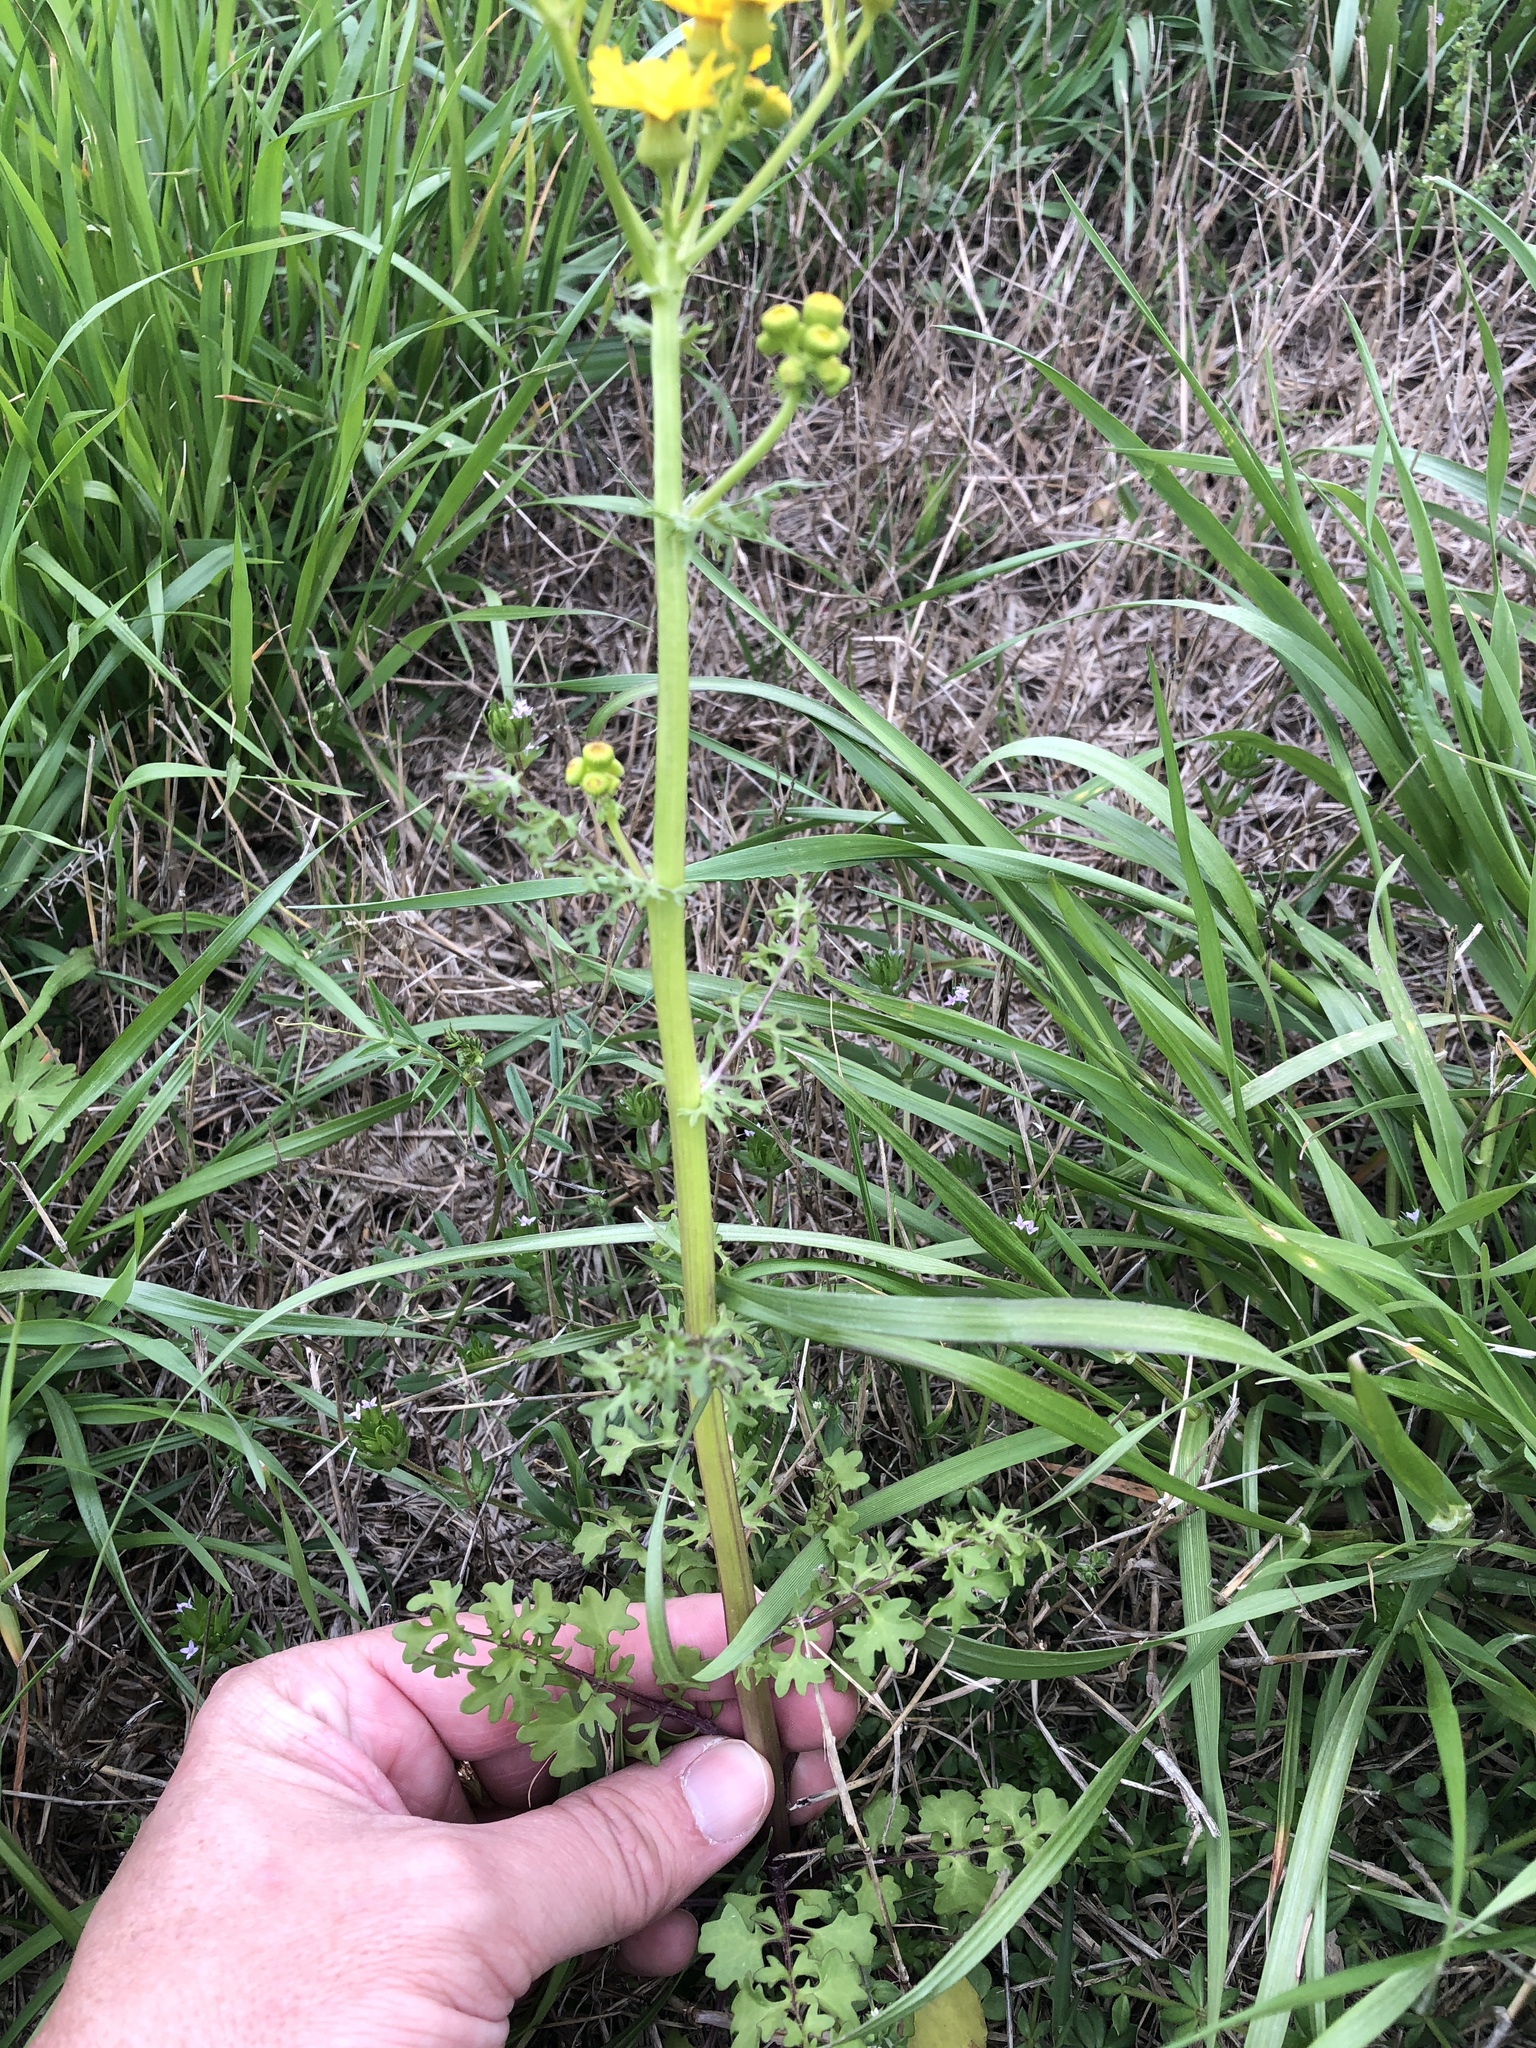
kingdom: Plantae
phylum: Tracheophyta
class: Magnoliopsida
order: Asterales
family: Asteraceae
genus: Packera
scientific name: Packera tampicana
